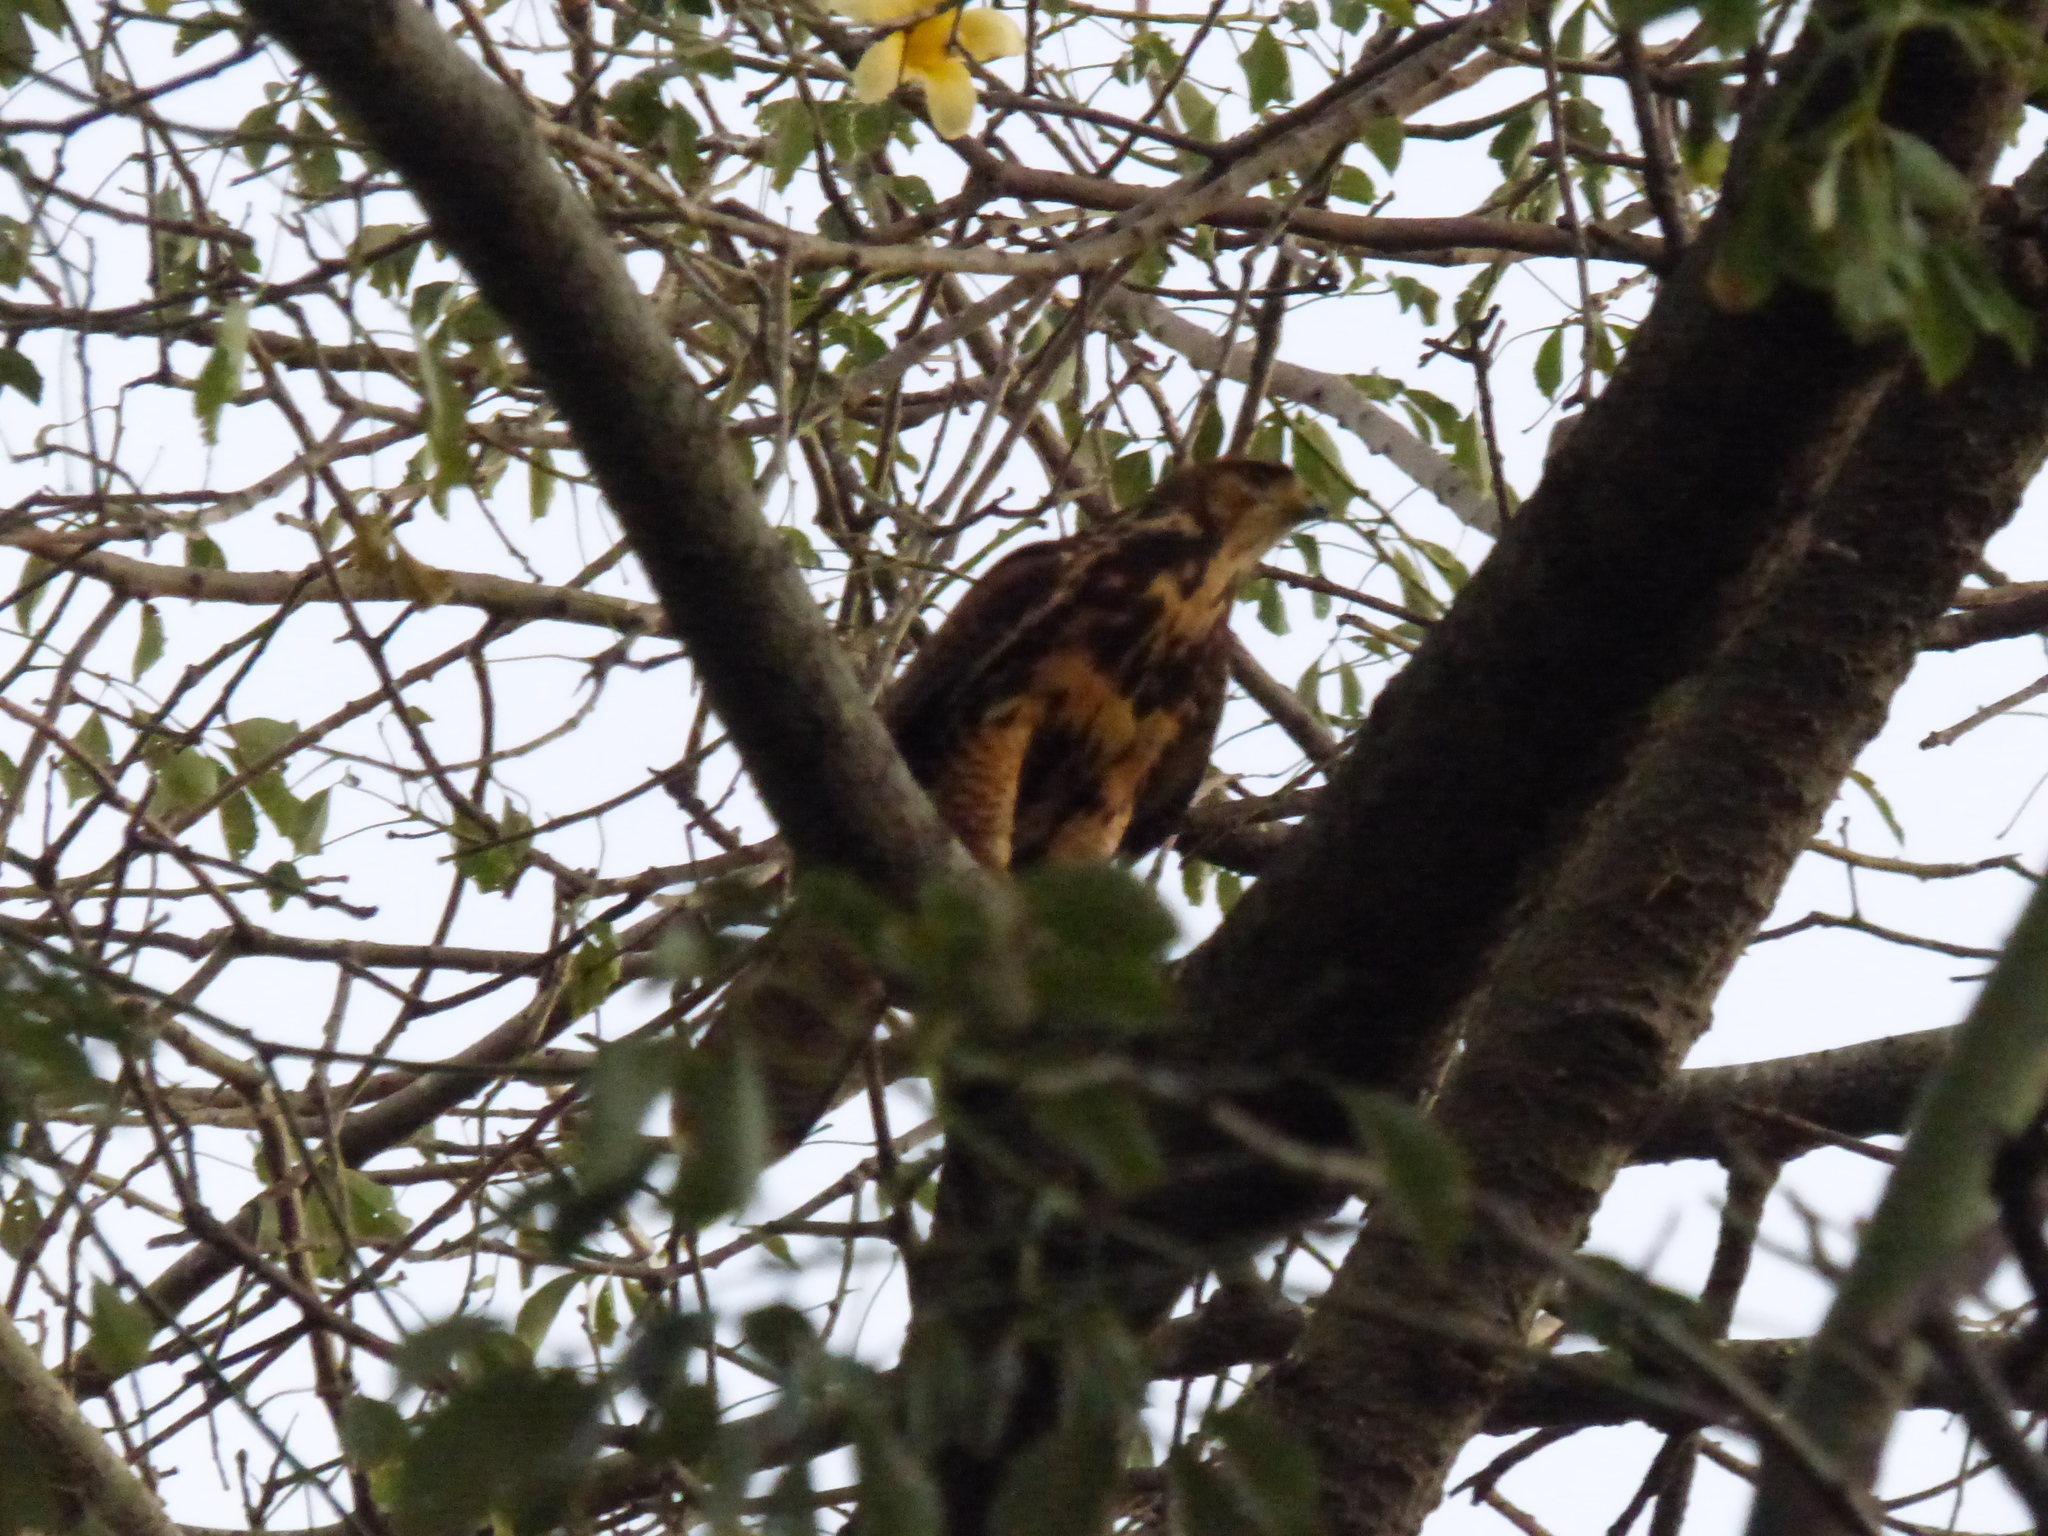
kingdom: Animalia
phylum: Chordata
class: Aves
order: Accipitriformes
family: Accipitridae
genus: Parabuteo
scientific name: Parabuteo unicinctus
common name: Harris's hawk
